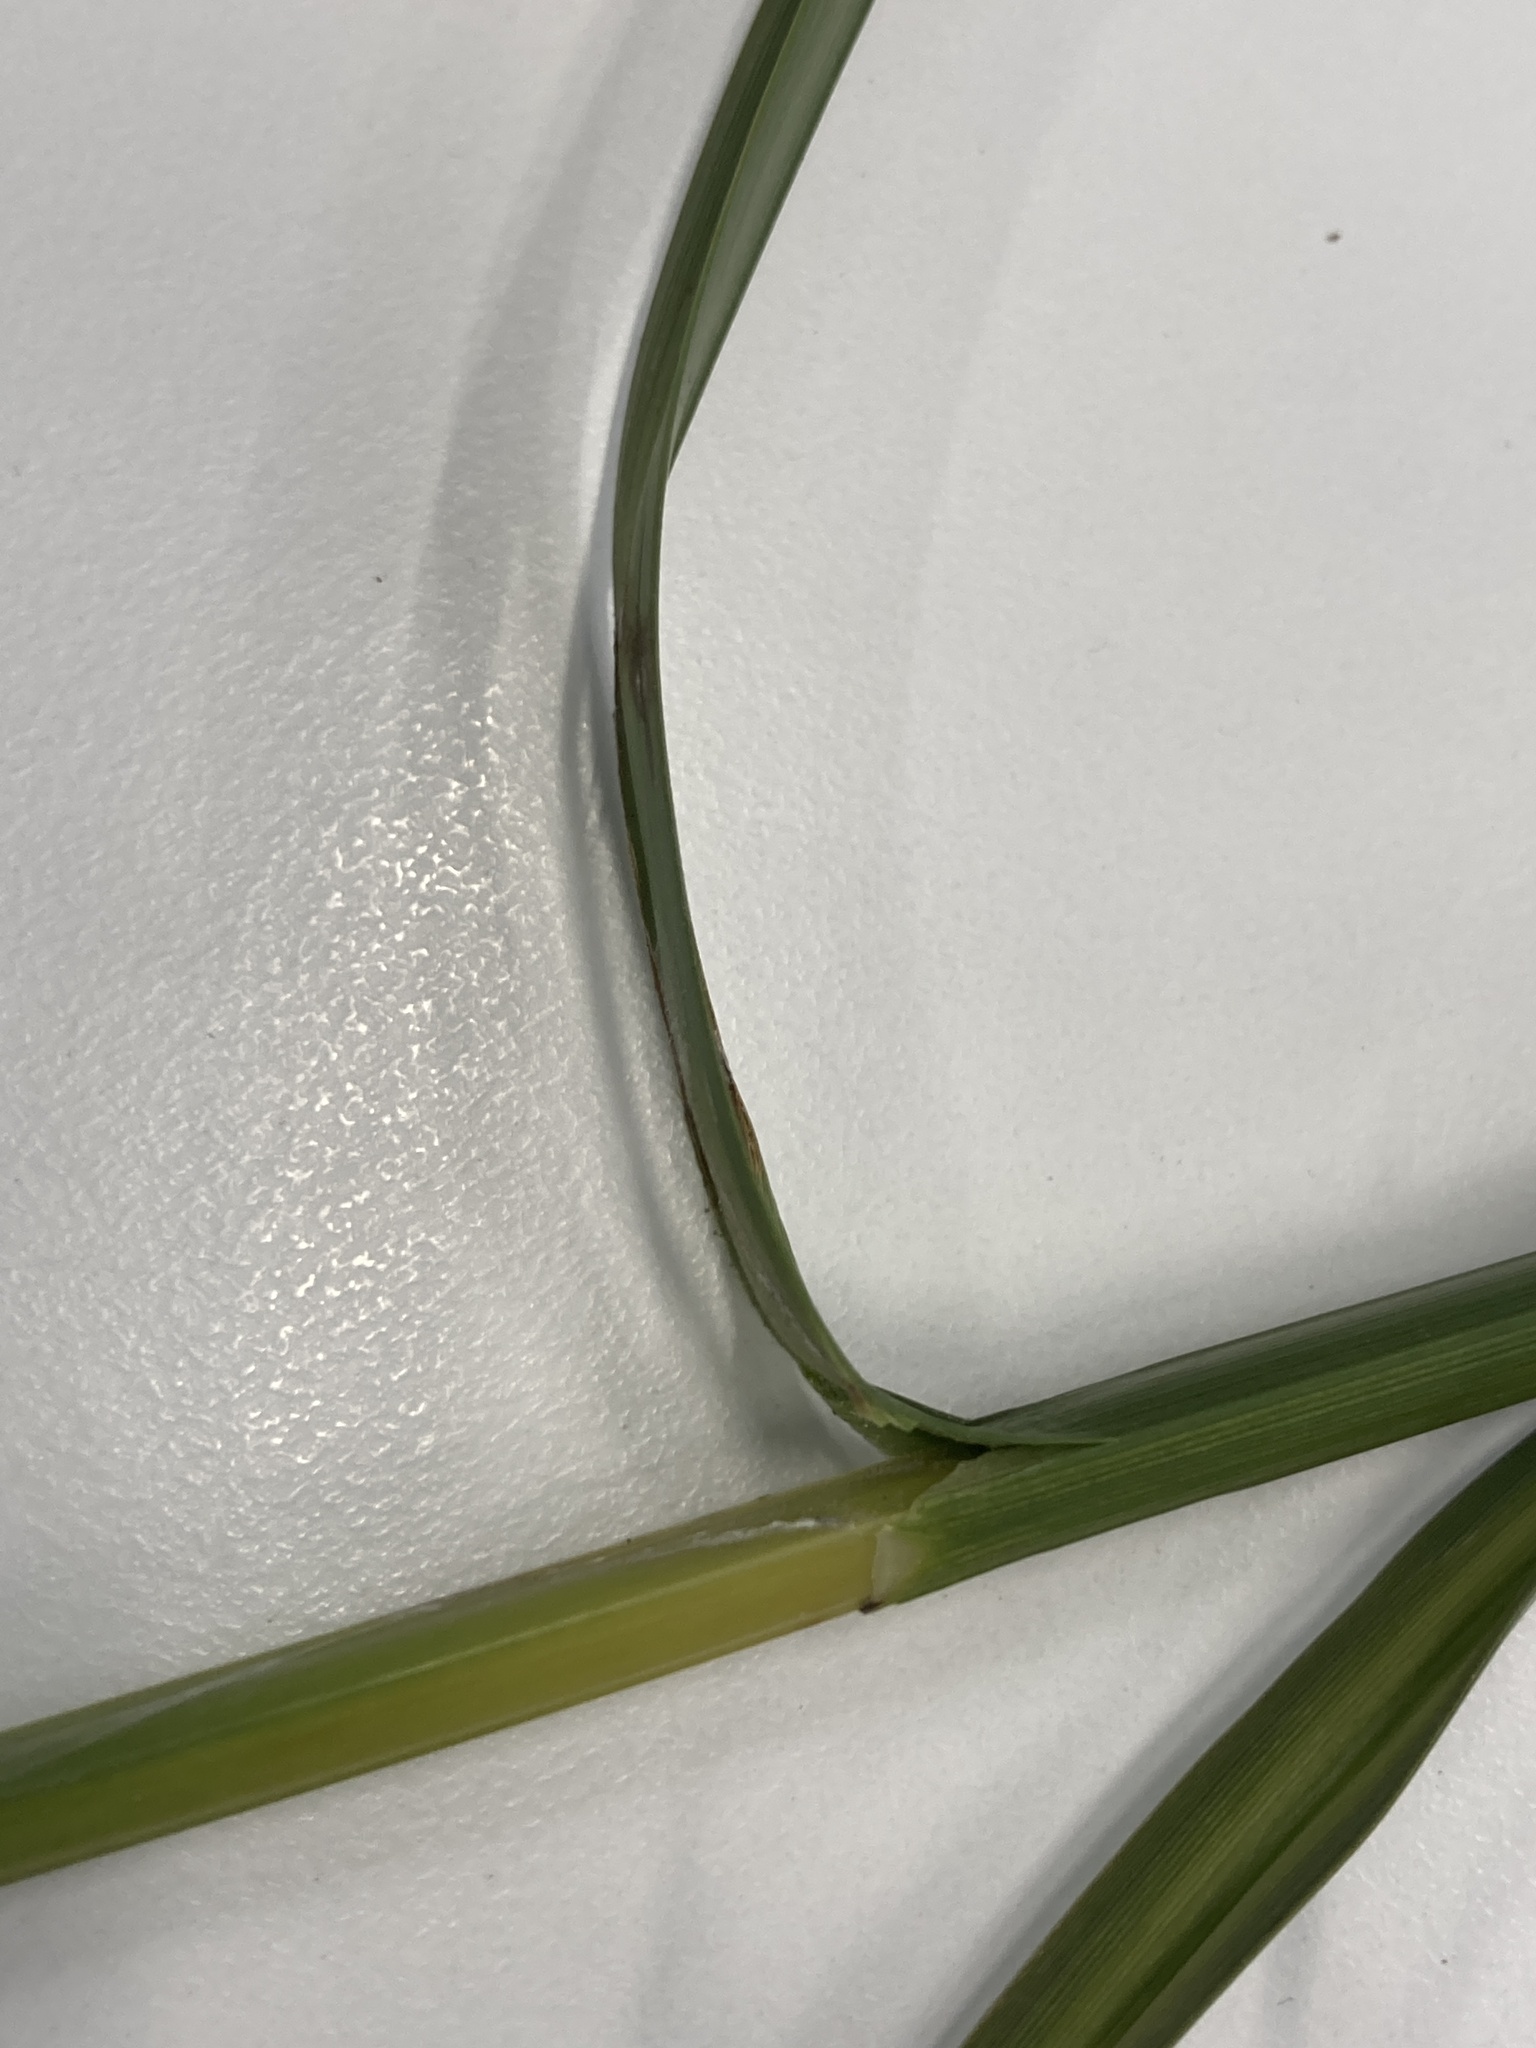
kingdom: Plantae
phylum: Tracheophyta
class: Liliopsida
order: Poales
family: Cyperaceae
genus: Bolboschoenus
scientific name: Bolboschoenus fluviatilis
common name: River bulrush
